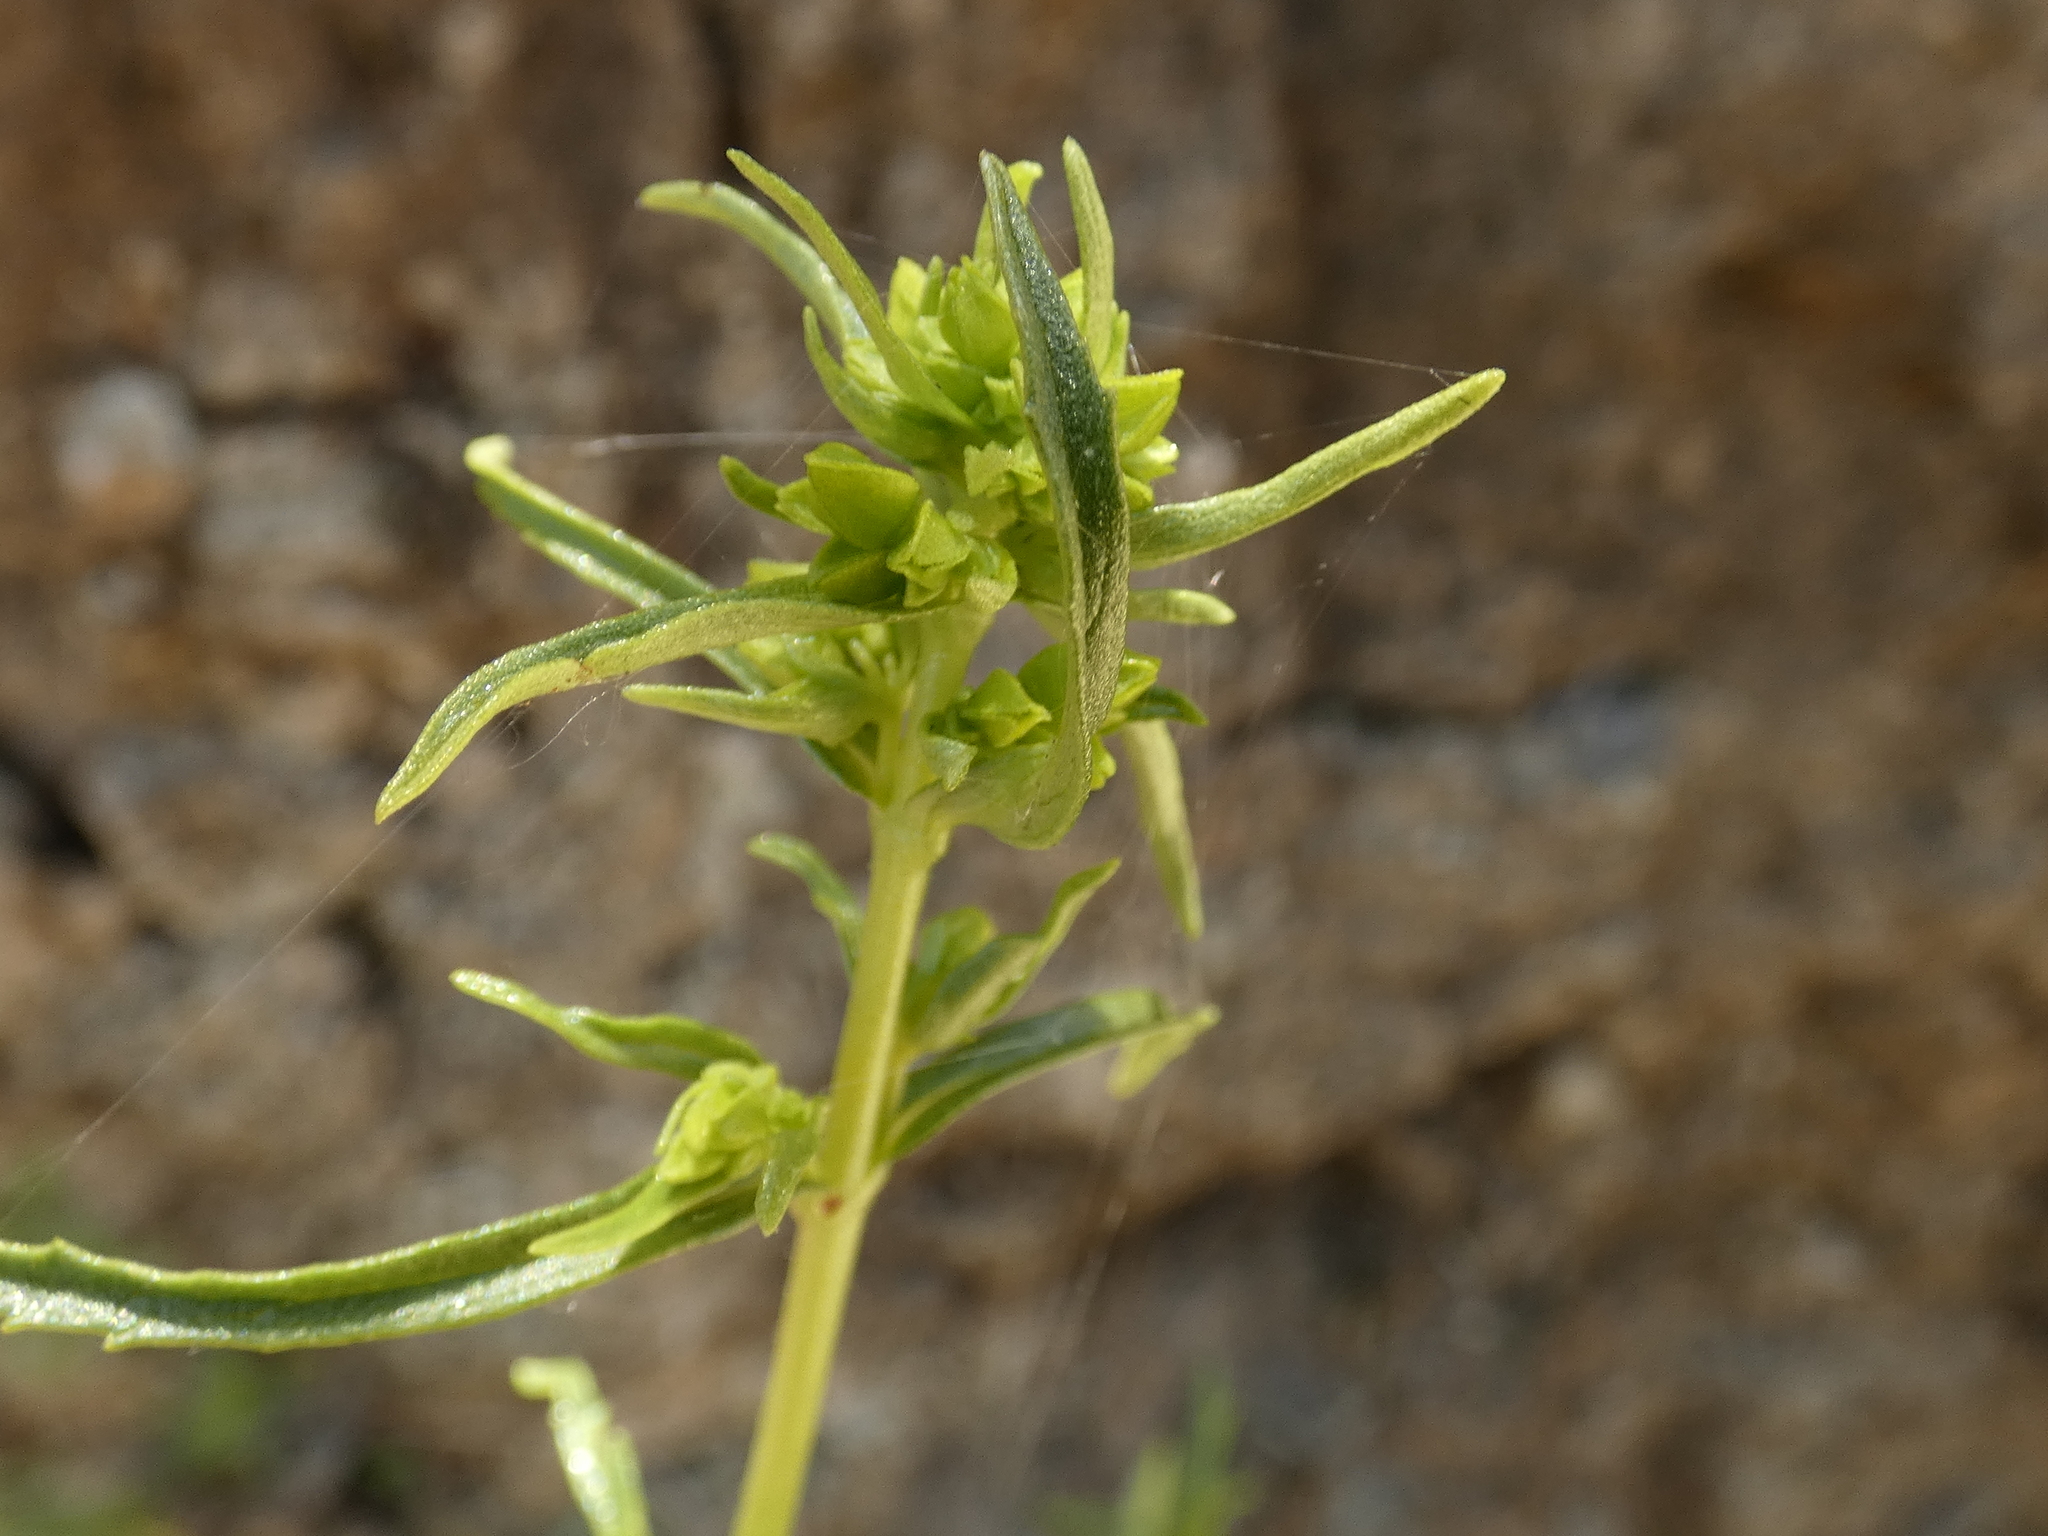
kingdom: Plantae
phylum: Tracheophyta
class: Magnoliopsida
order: Lamiales
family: Calceolariaceae
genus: Calceolaria
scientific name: Calceolaria thyrsiflora
